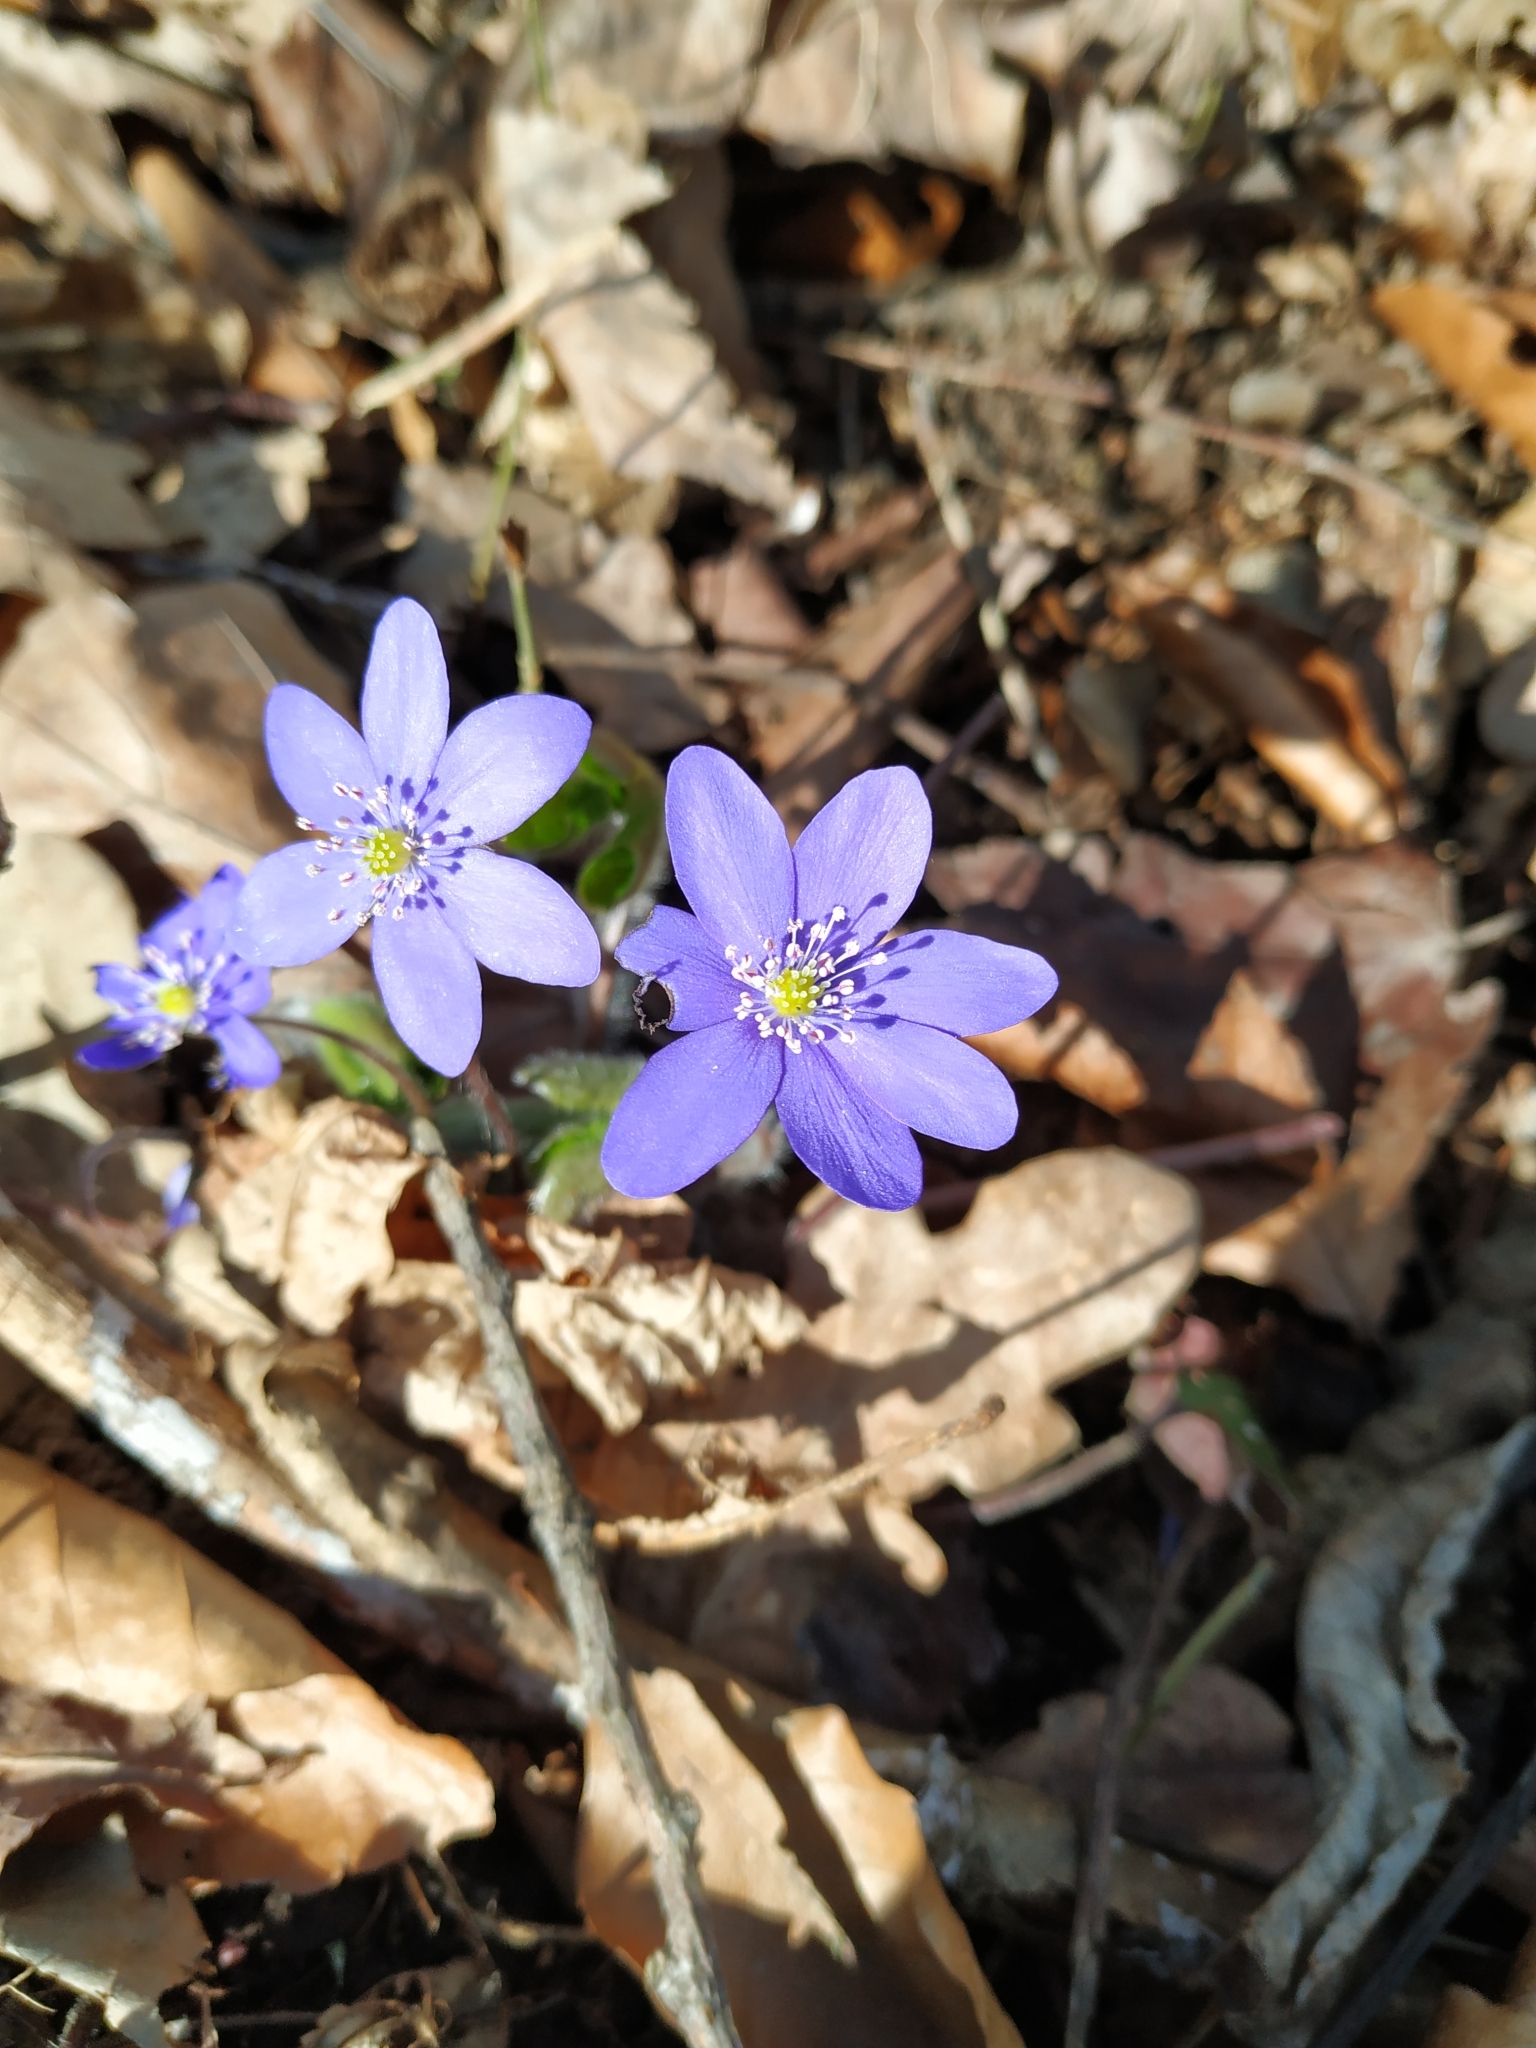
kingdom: Plantae
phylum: Tracheophyta
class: Magnoliopsida
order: Ranunculales
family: Ranunculaceae
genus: Hepatica
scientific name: Hepatica nobilis
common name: Liverleaf
